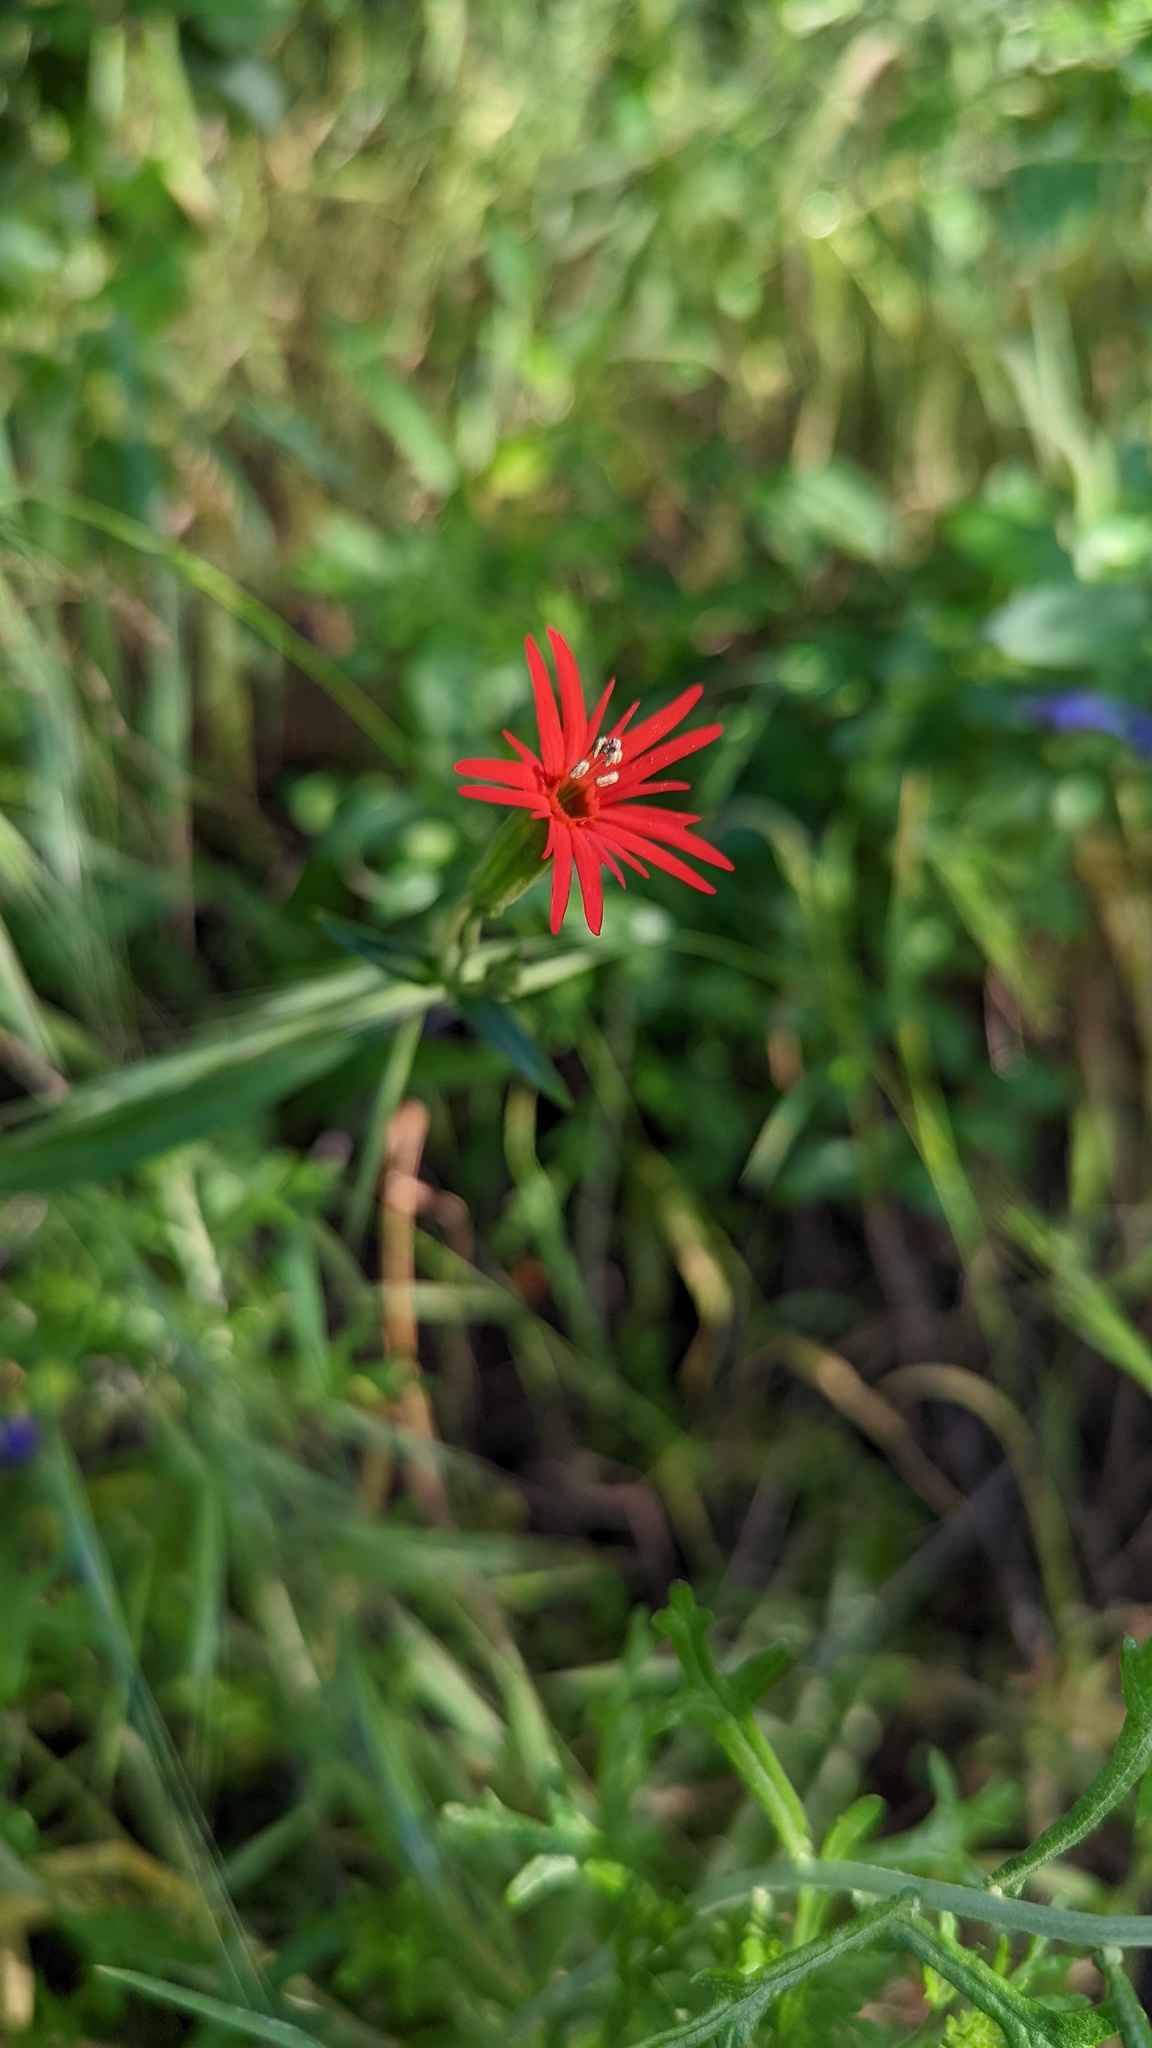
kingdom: Plantae
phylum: Tracheophyta
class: Magnoliopsida
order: Caryophyllales
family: Caryophyllaceae
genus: Silene
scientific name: Silene laciniata
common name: Indian-pink
